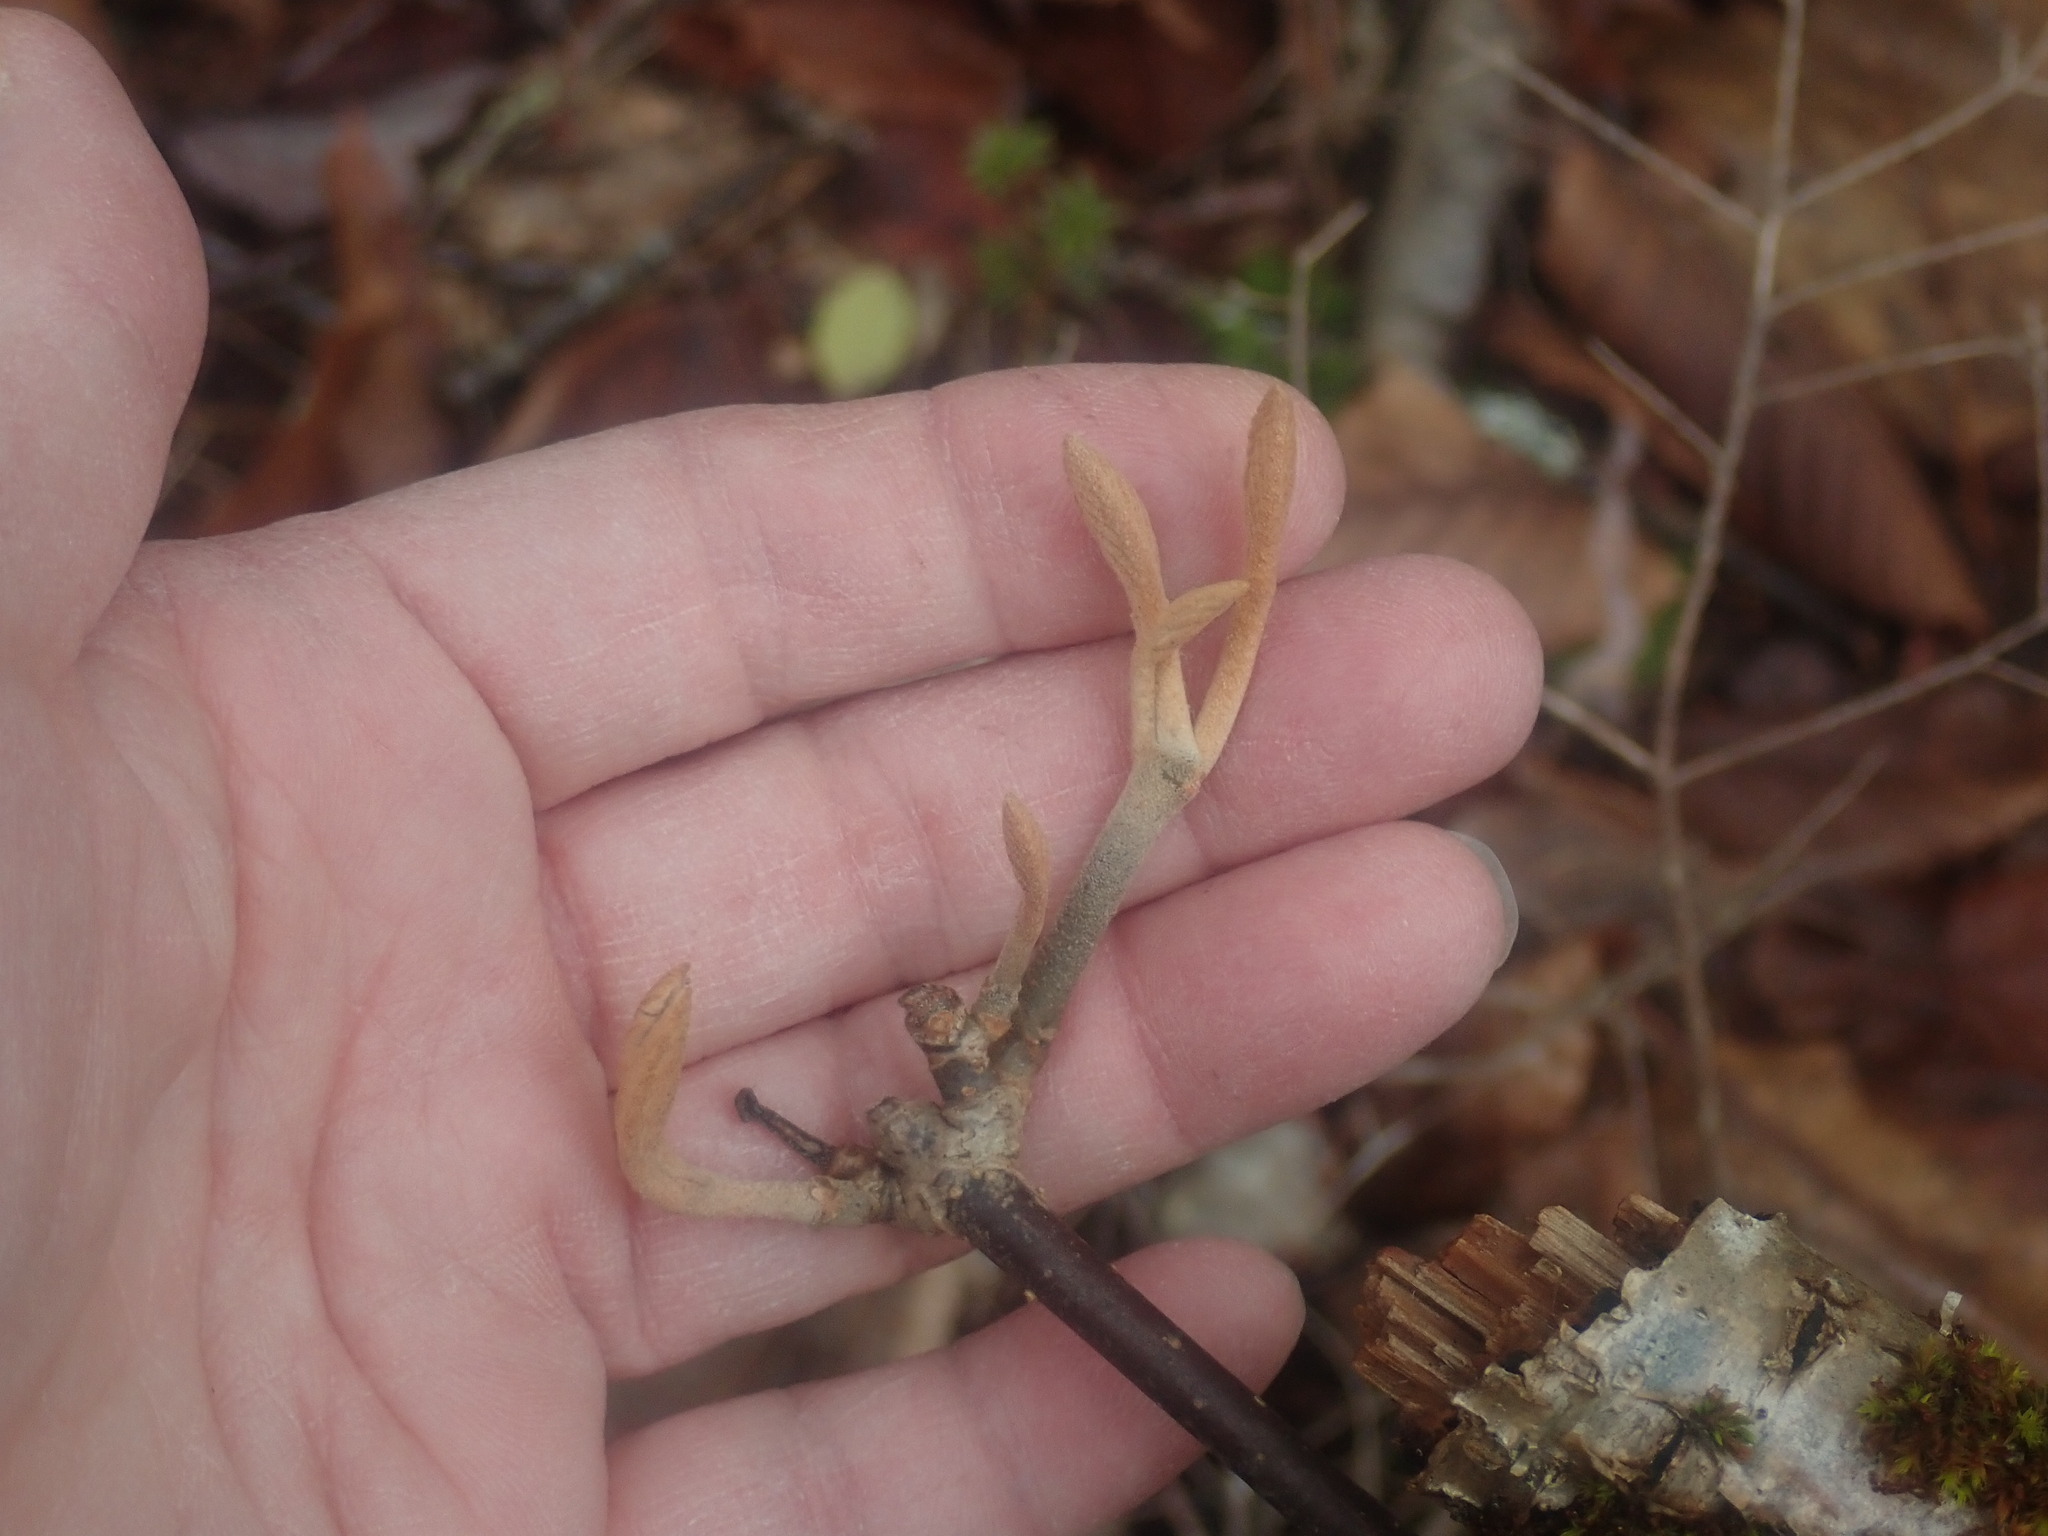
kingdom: Plantae
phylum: Tracheophyta
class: Magnoliopsida
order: Dipsacales
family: Viburnaceae
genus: Viburnum
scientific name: Viburnum lantanoides
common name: Hobblebush
